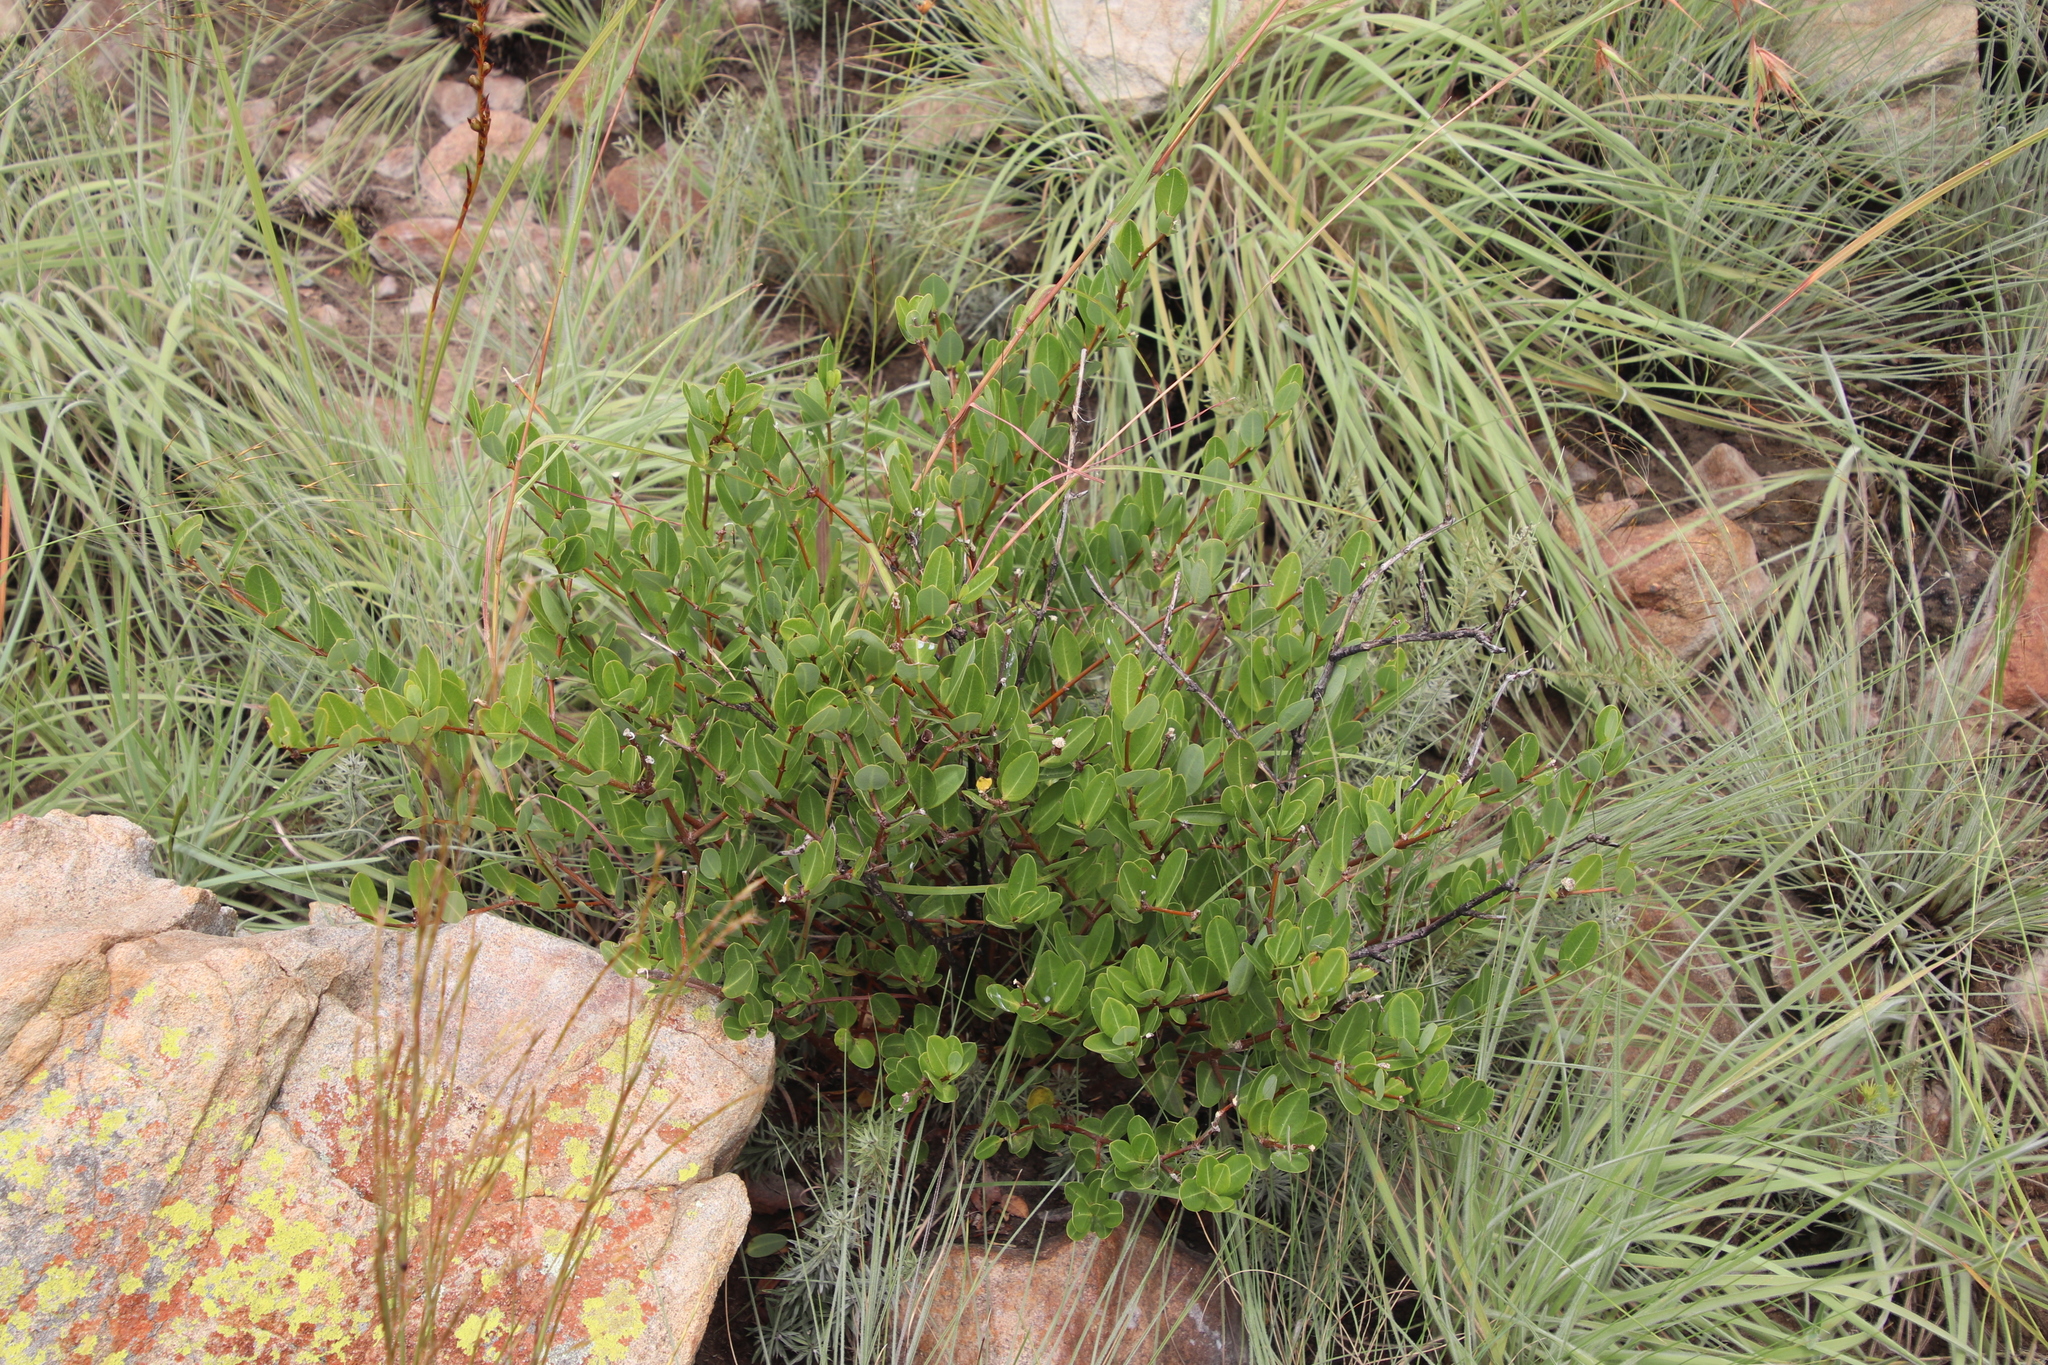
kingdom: Plantae
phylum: Tracheophyta
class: Magnoliopsida
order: Gentianales
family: Apocynaceae
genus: Cryptolepis
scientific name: Cryptolepis oblongifolia
